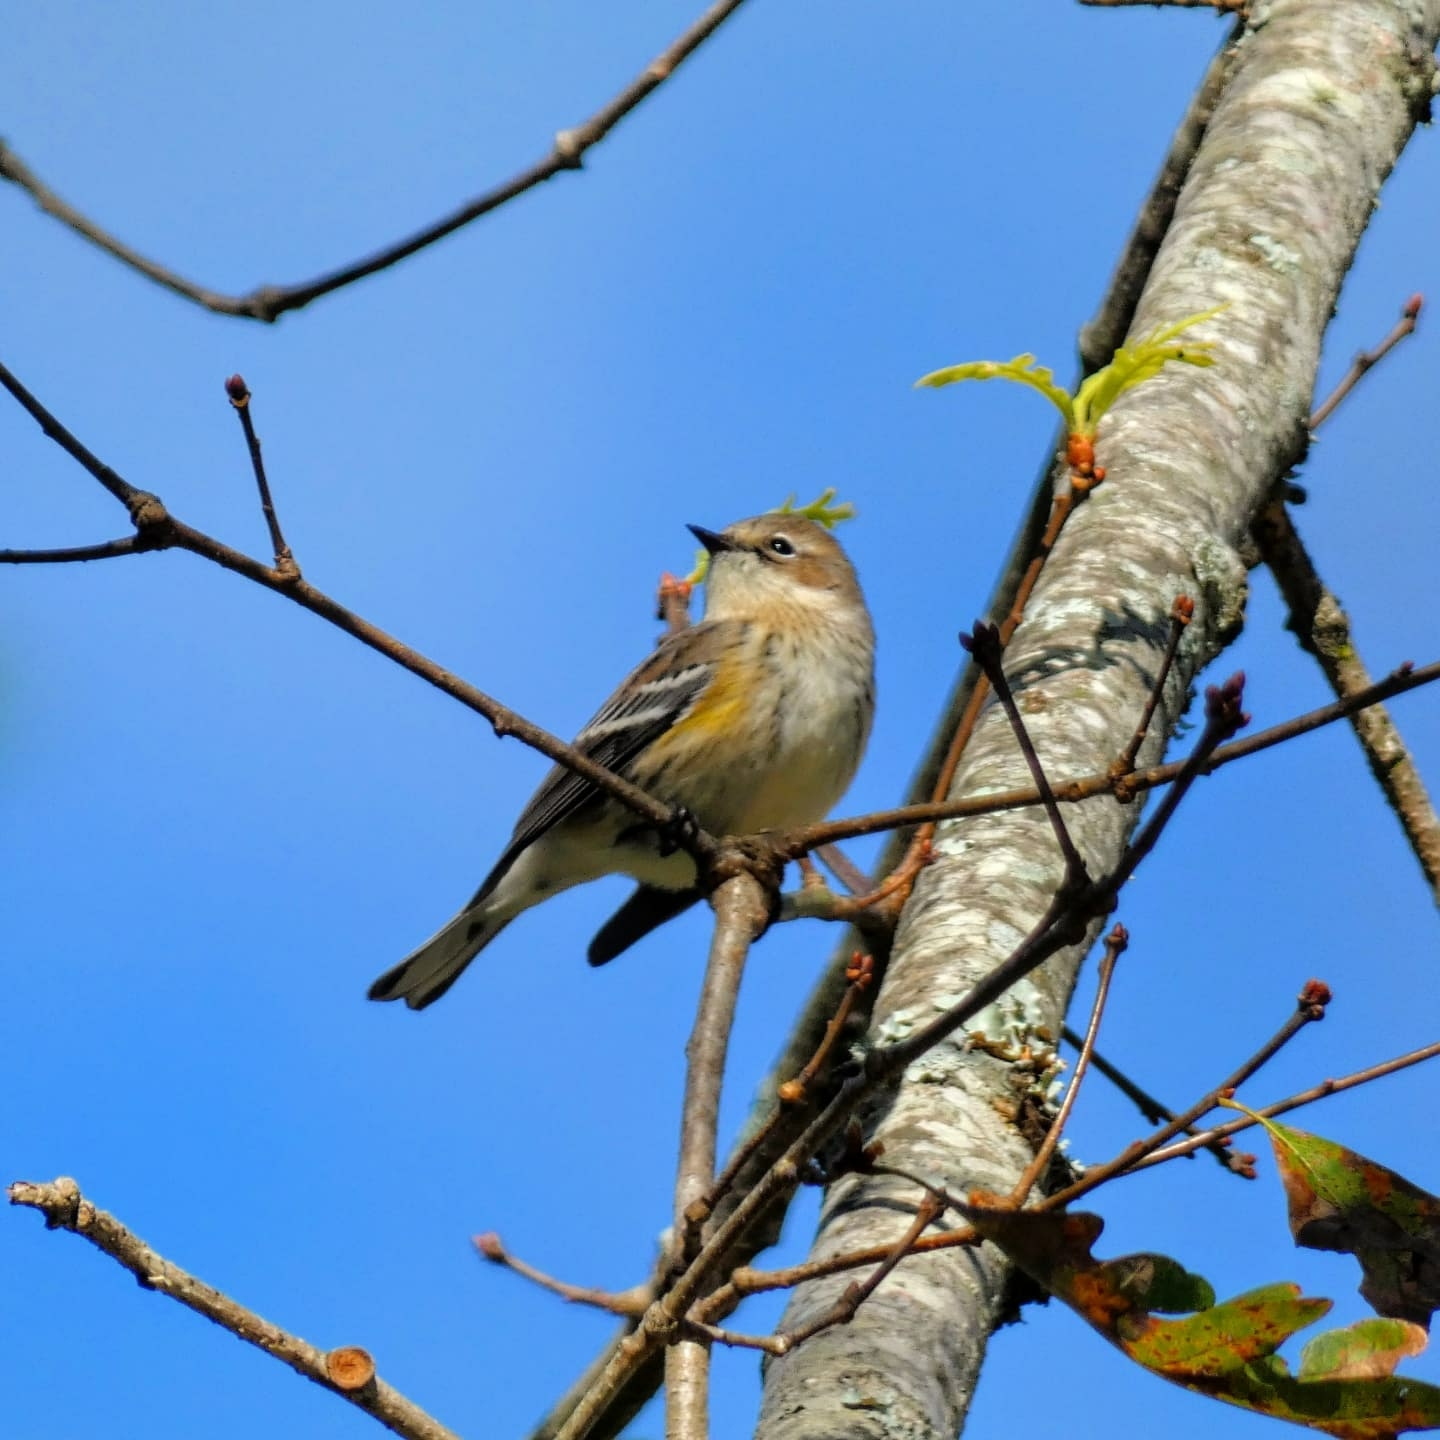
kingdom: Animalia
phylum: Chordata
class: Aves
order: Passeriformes
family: Parulidae
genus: Setophaga
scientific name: Setophaga coronata
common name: Myrtle warbler
